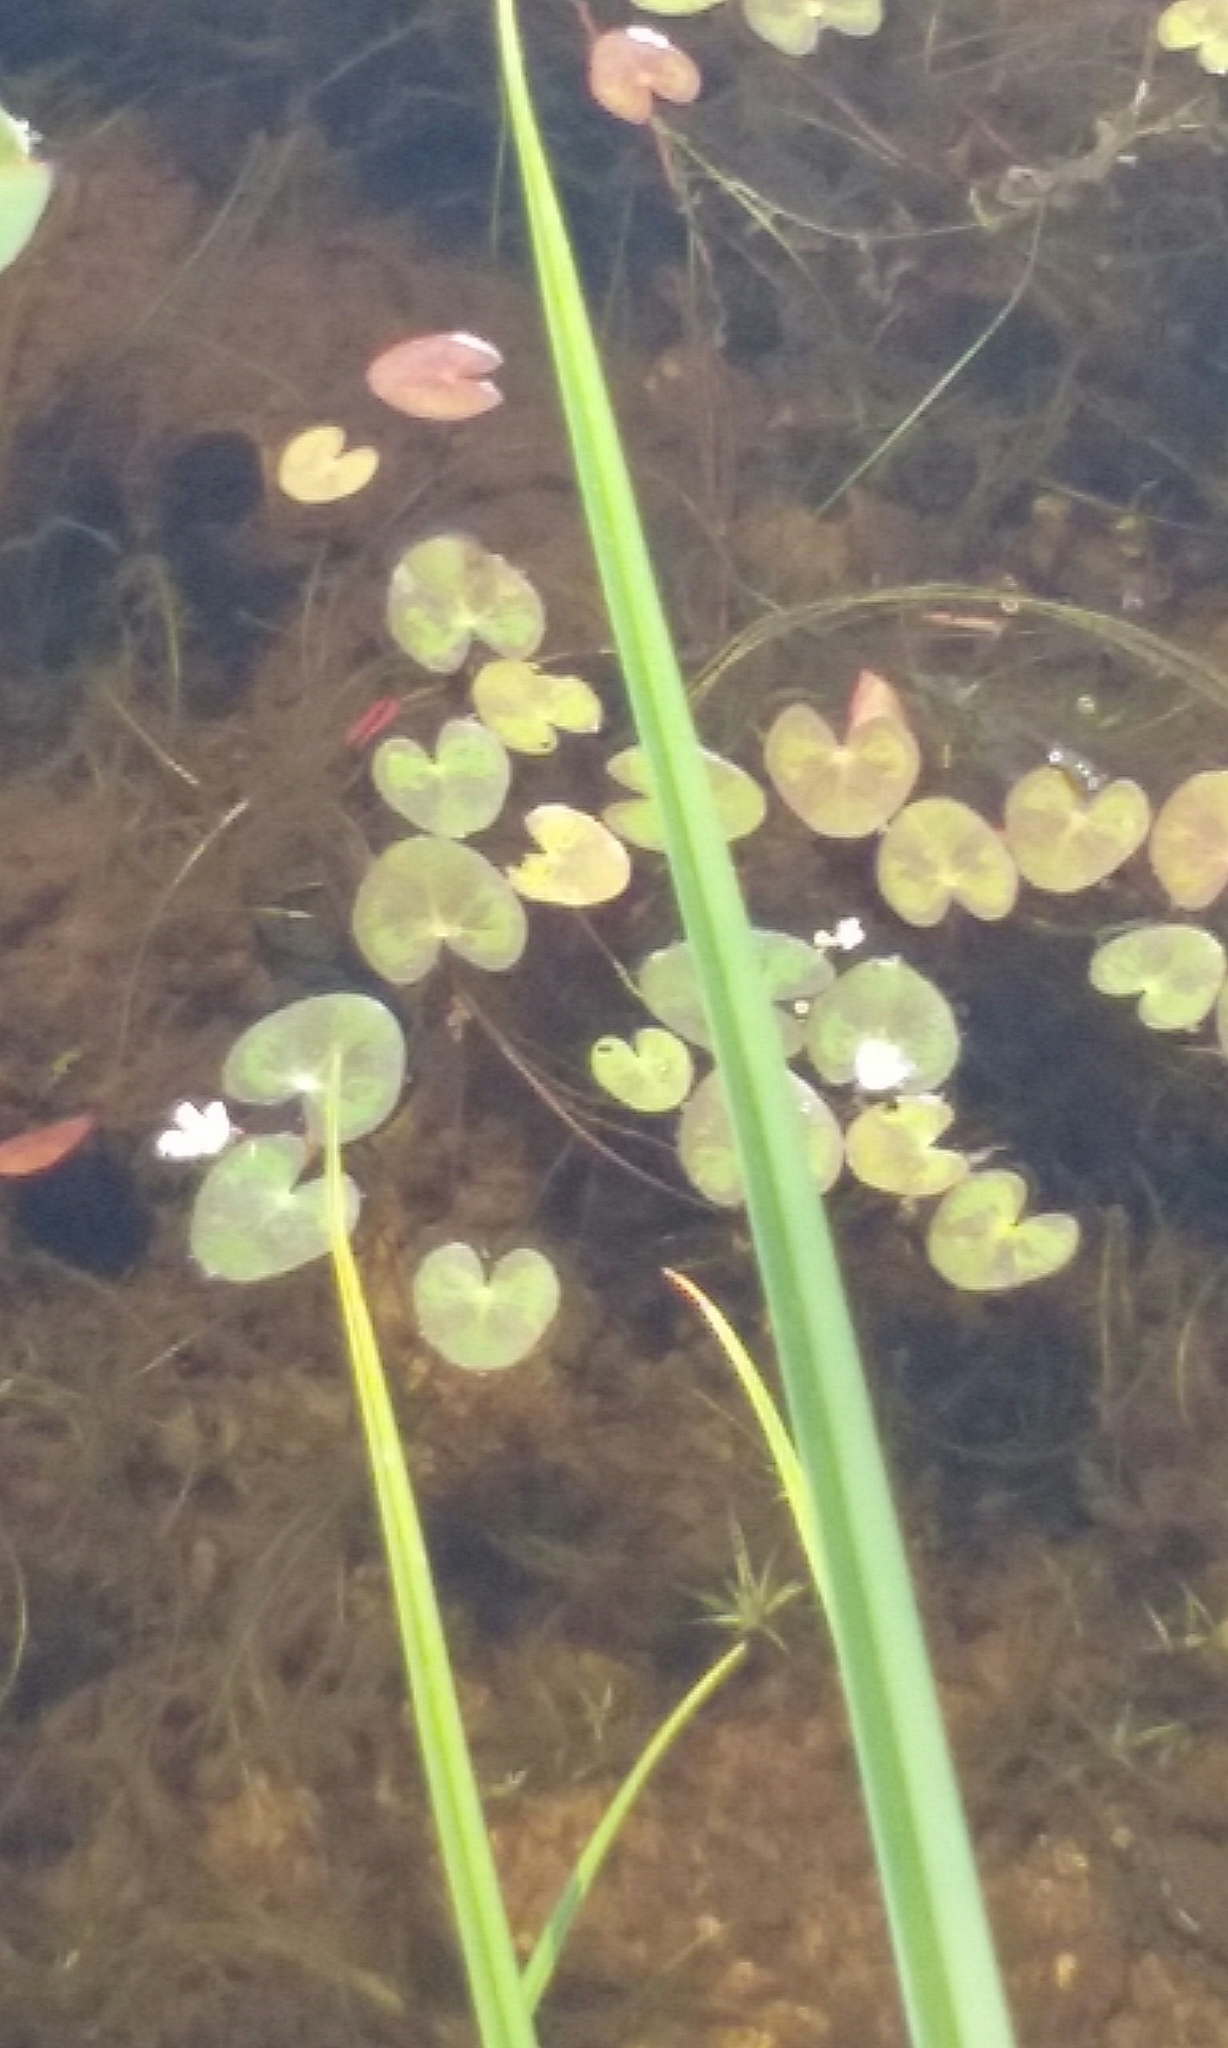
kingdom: Plantae
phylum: Tracheophyta
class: Magnoliopsida
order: Asterales
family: Menyanthaceae
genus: Nymphoides
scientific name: Nymphoides cordata
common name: Eight-angled floatingheart
